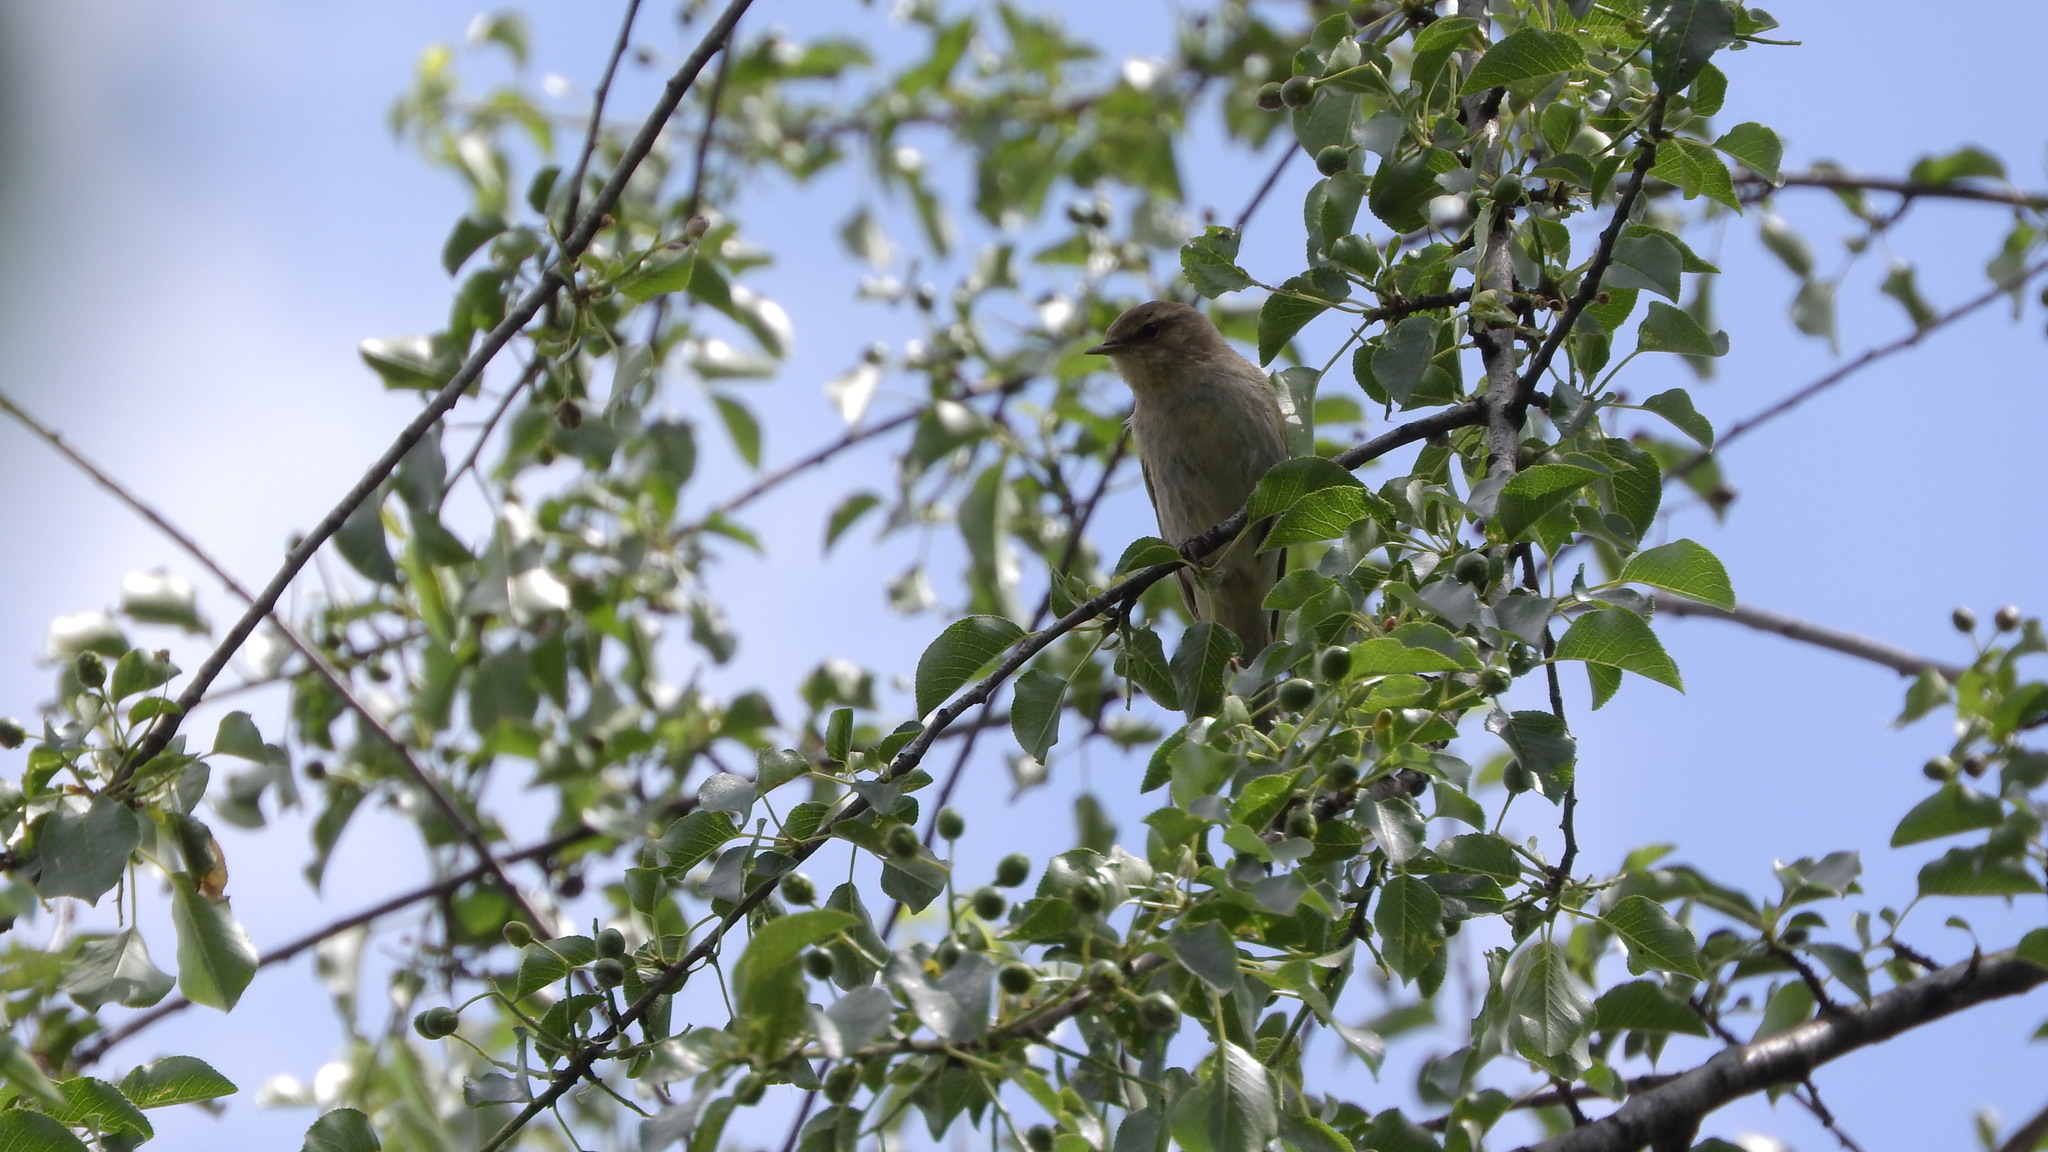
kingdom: Animalia
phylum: Chordata
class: Aves
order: Passeriformes
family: Phylloscopidae
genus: Phylloscopus
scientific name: Phylloscopus collybita
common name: Common chiffchaff
